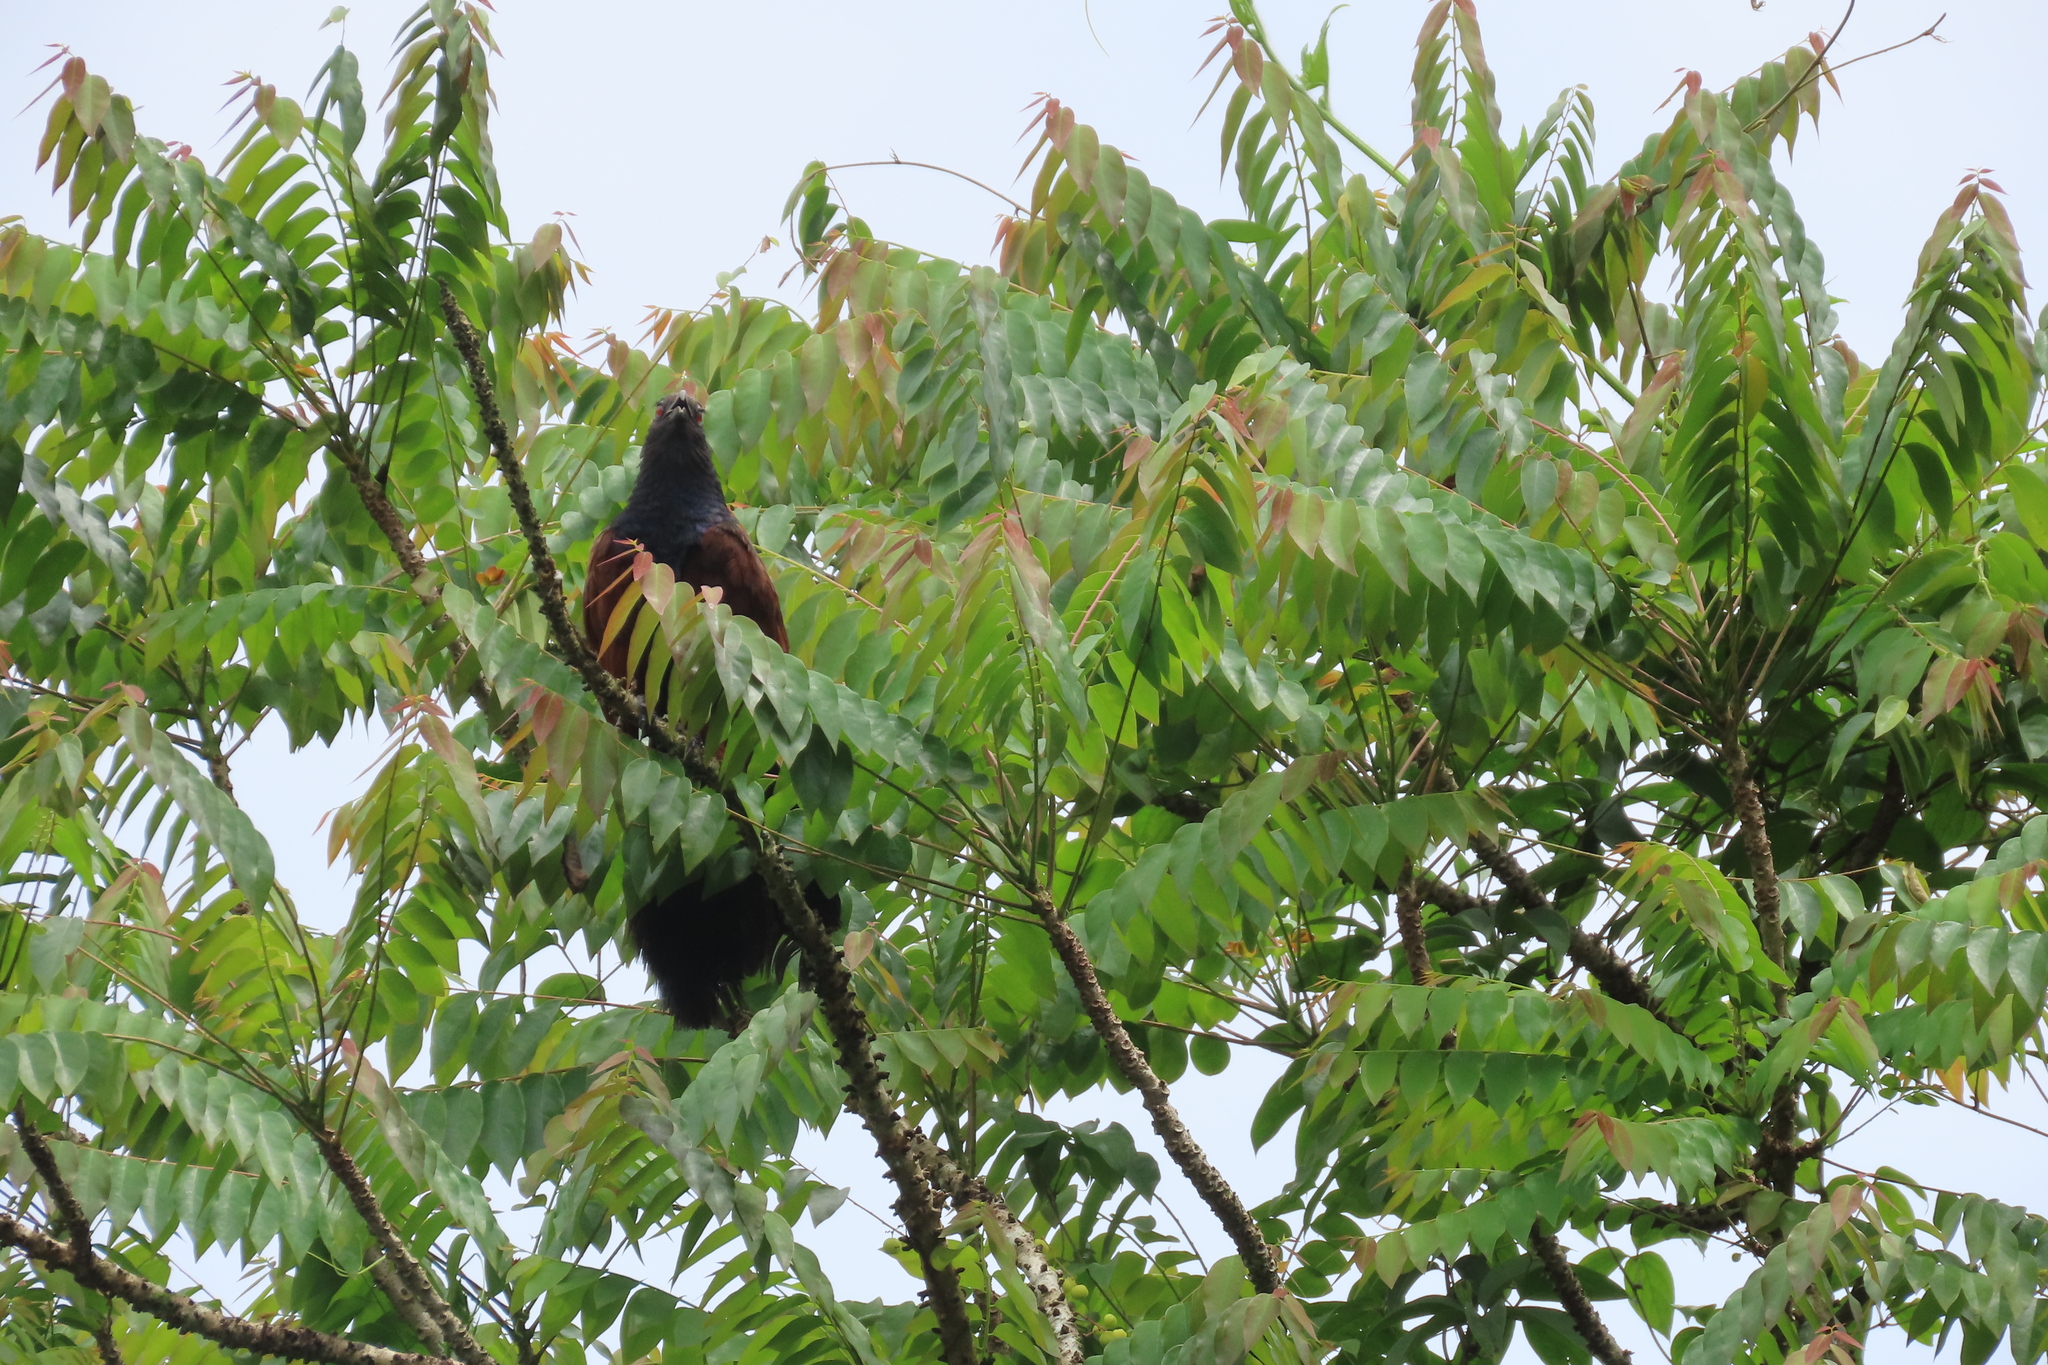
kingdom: Animalia
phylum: Chordata
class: Aves
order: Cuculiformes
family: Cuculidae
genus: Centropus
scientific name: Centropus sinensis
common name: Greater coucal
